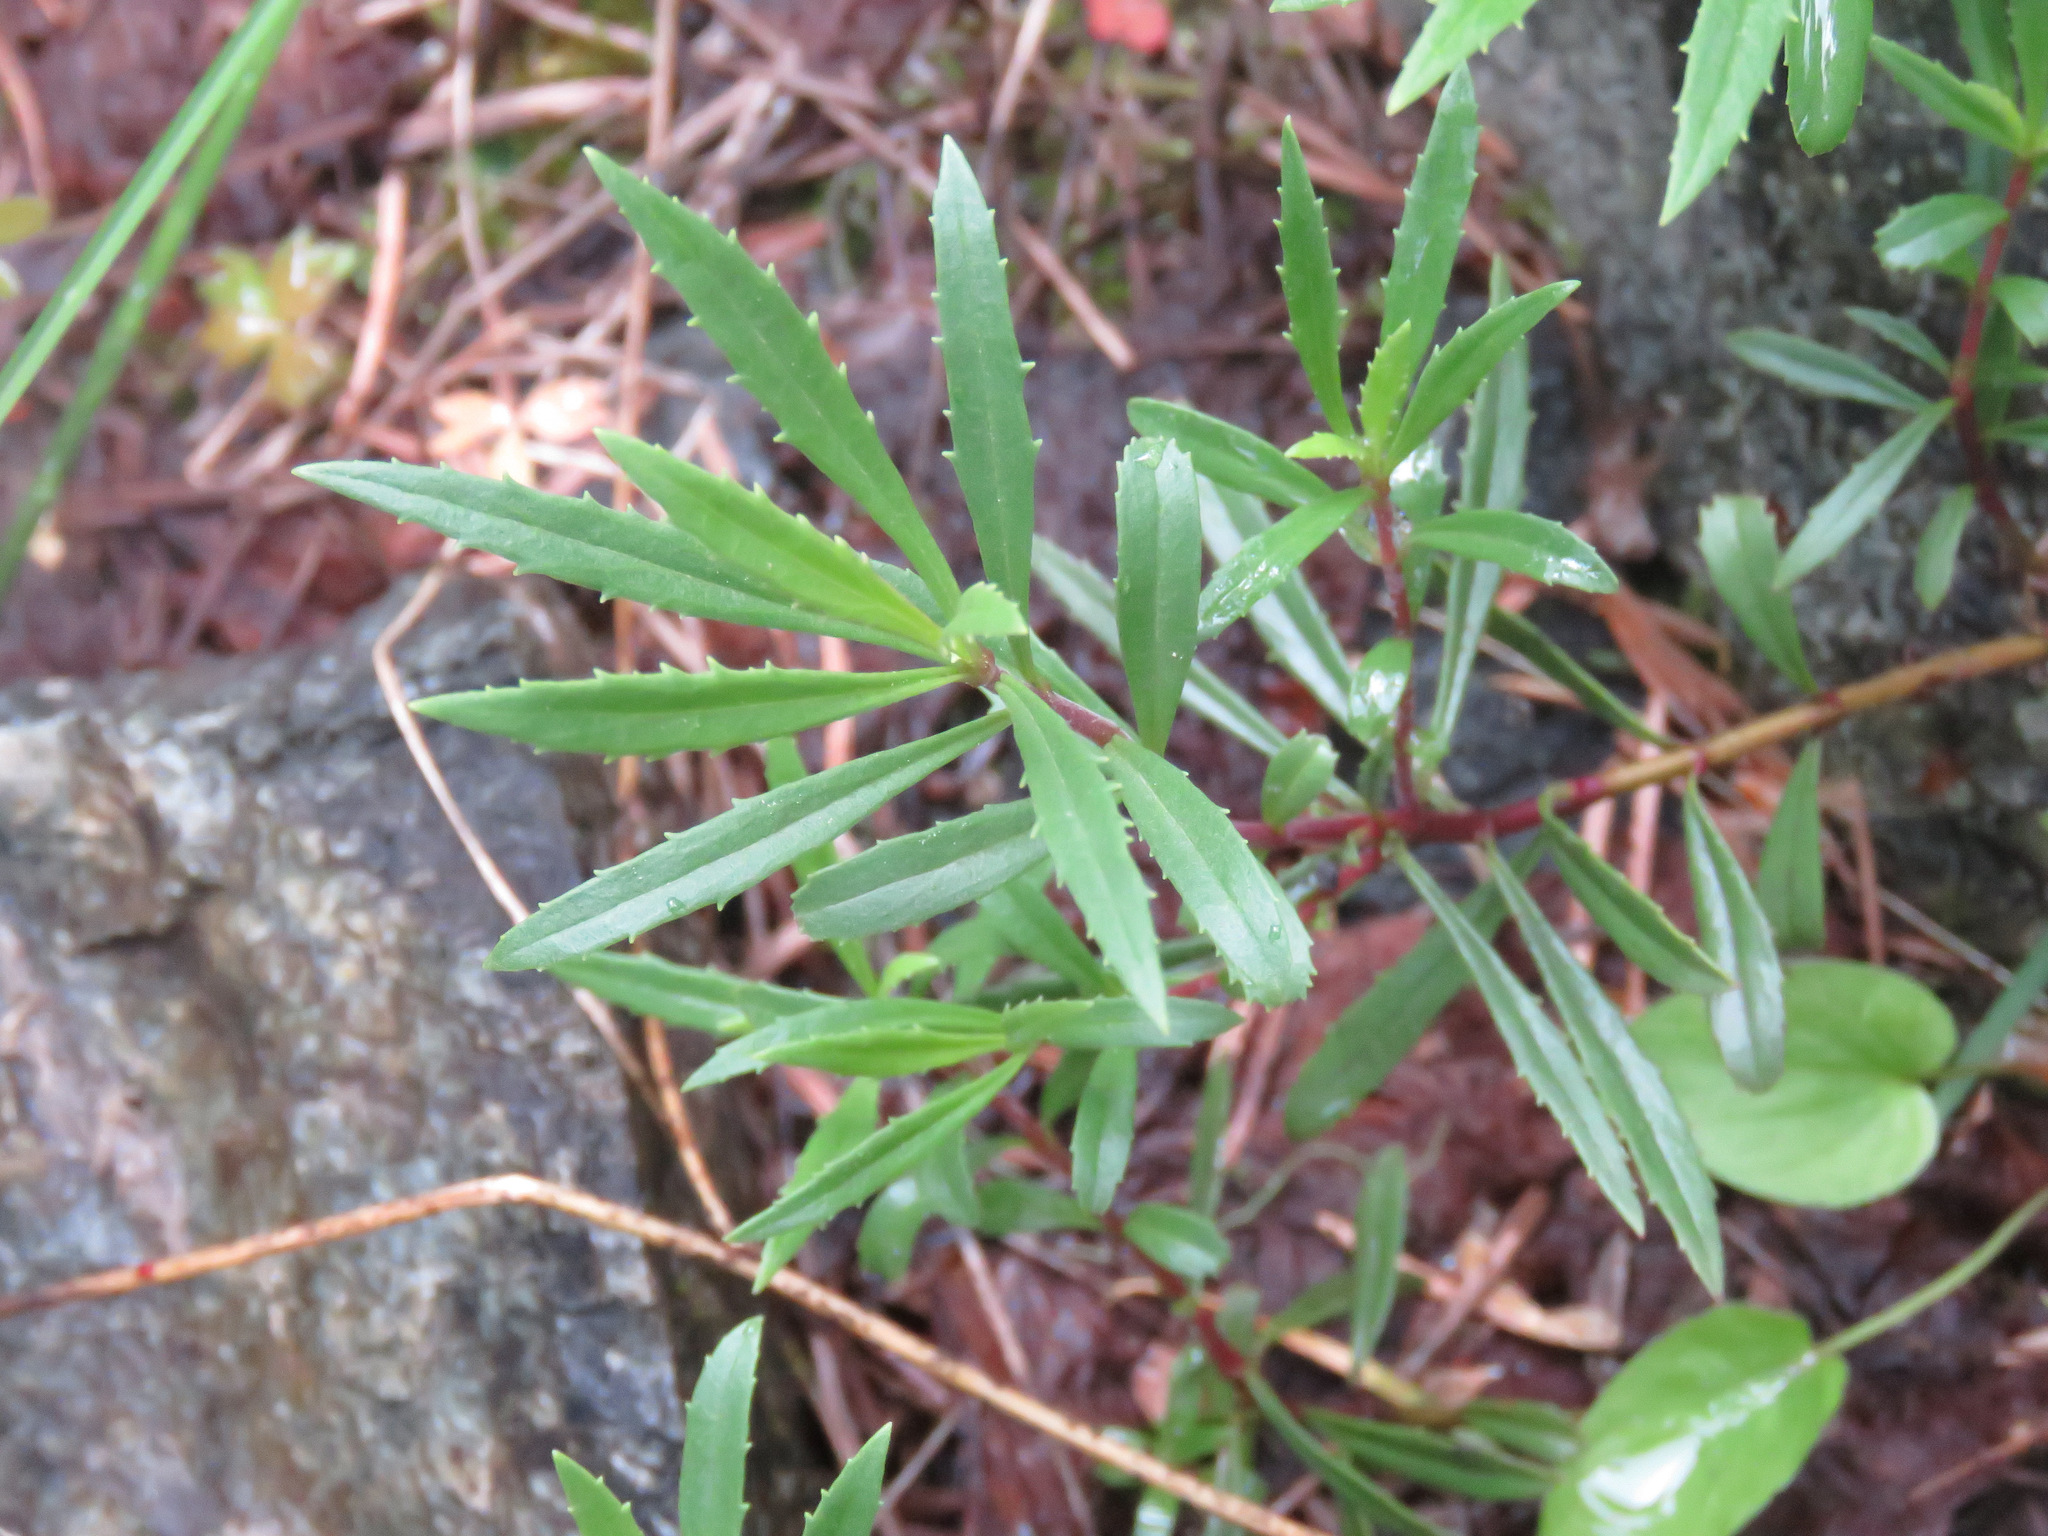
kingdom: Plantae
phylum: Tracheophyta
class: Magnoliopsida
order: Lamiales
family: Plantaginaceae
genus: Penstemon
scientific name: Penstemon fruticosus
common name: Bush penstemon
